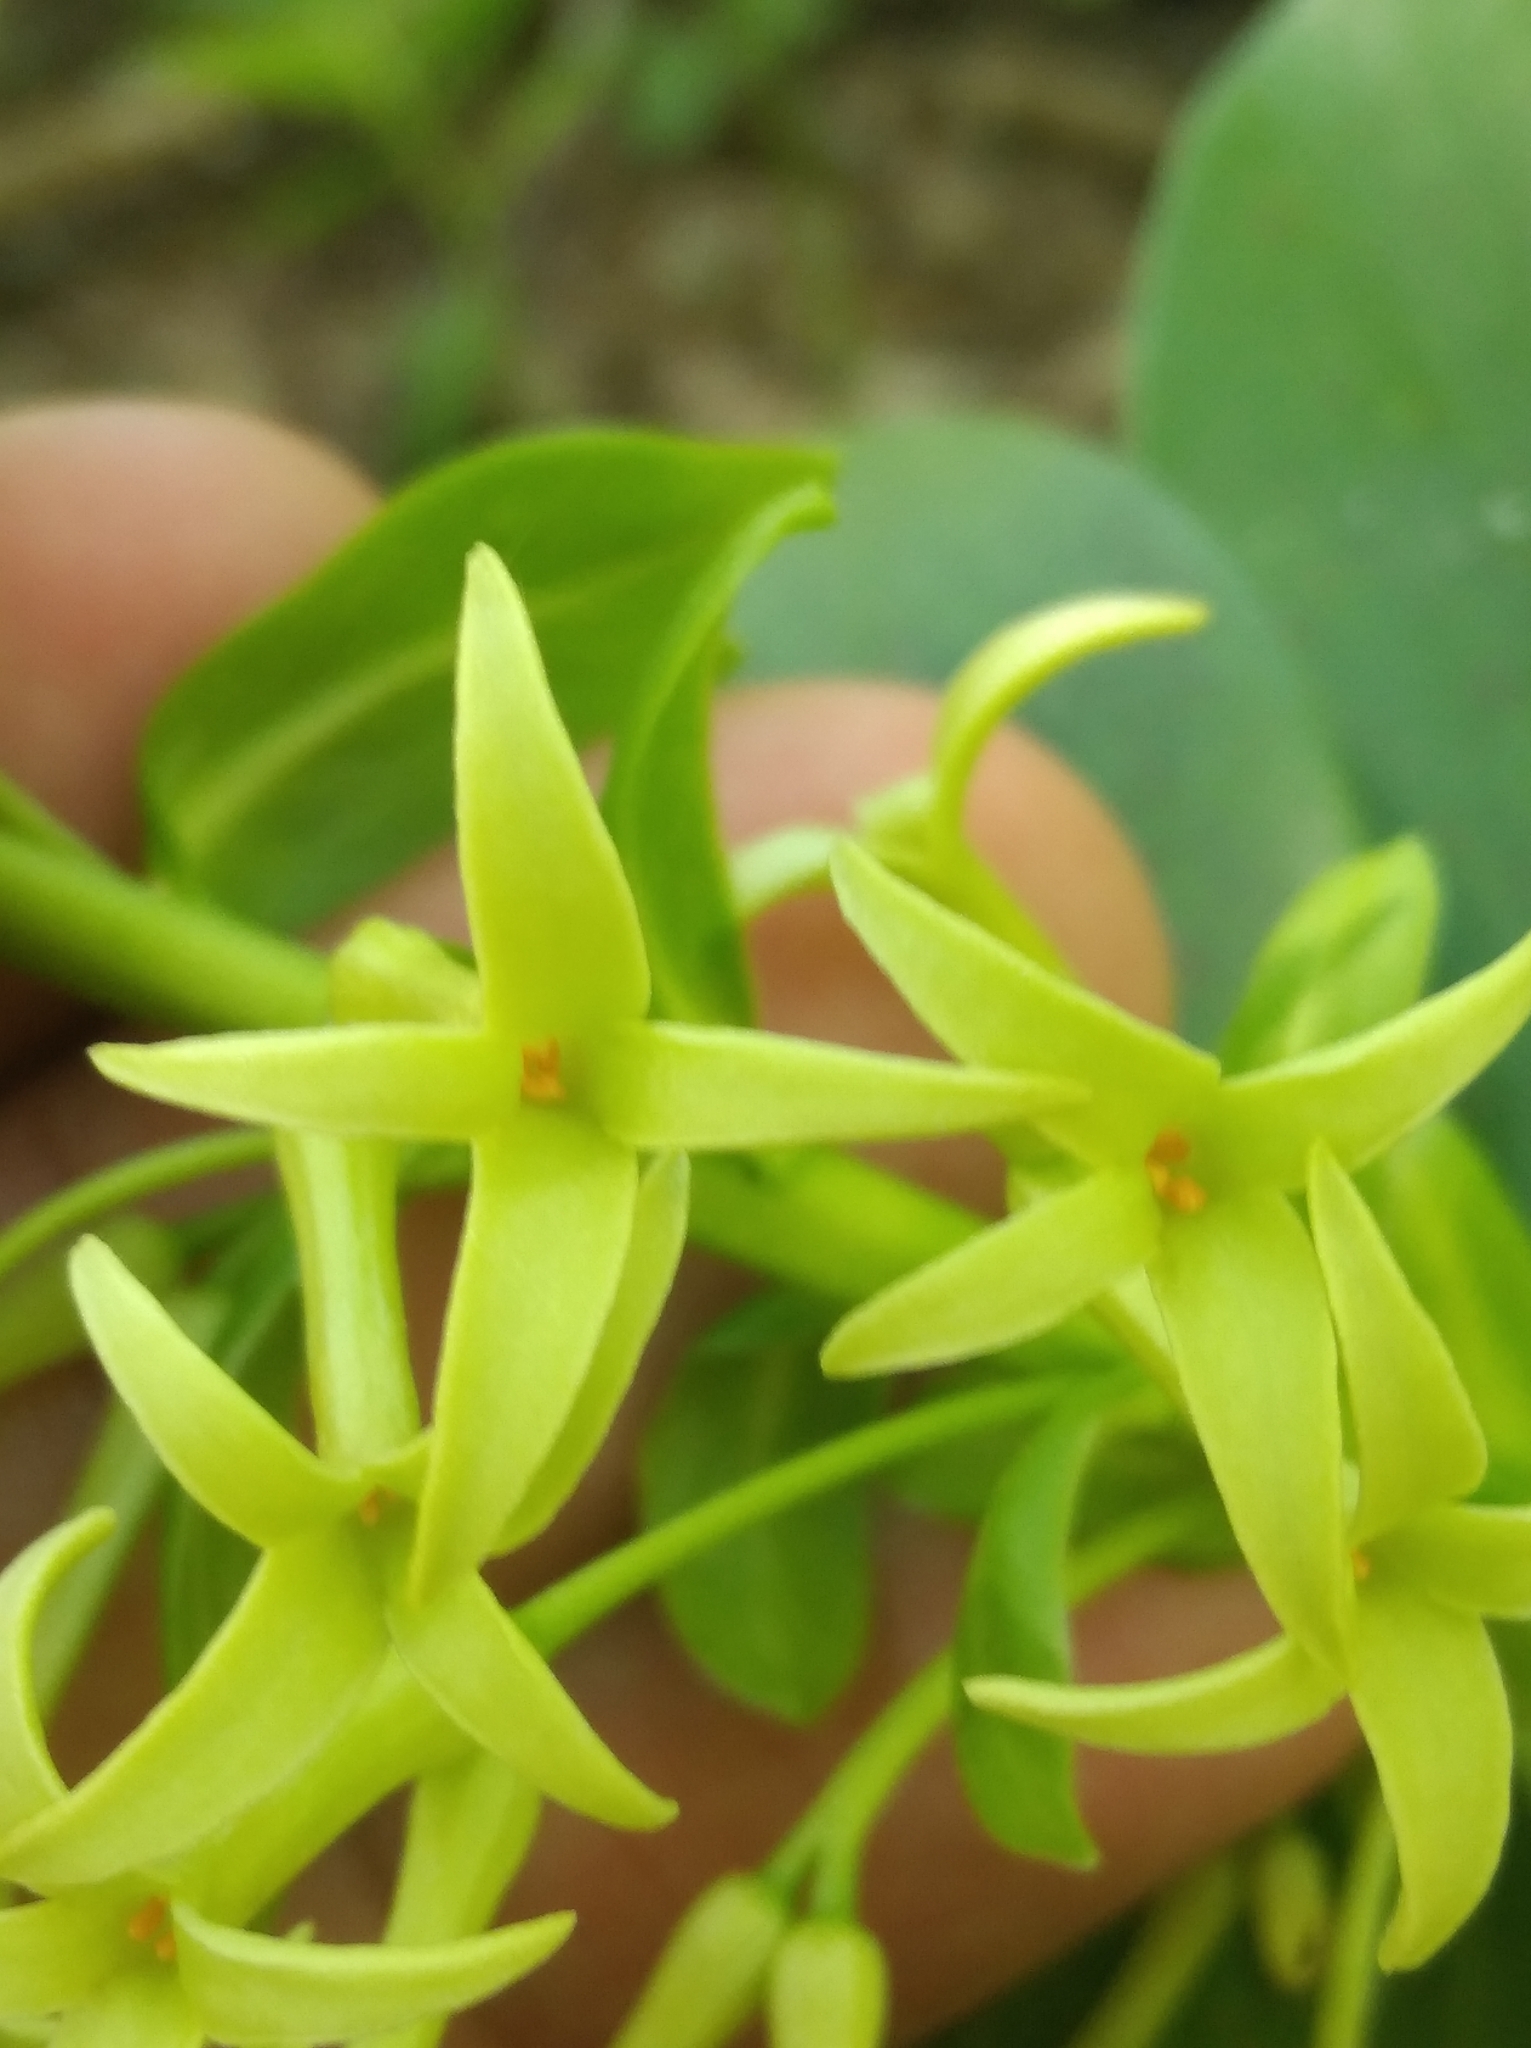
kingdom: Plantae
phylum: Tracheophyta
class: Magnoliopsida
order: Malvales
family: Thymelaeaceae
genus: Daphne
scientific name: Daphne pontica
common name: Twin-flower daphne
